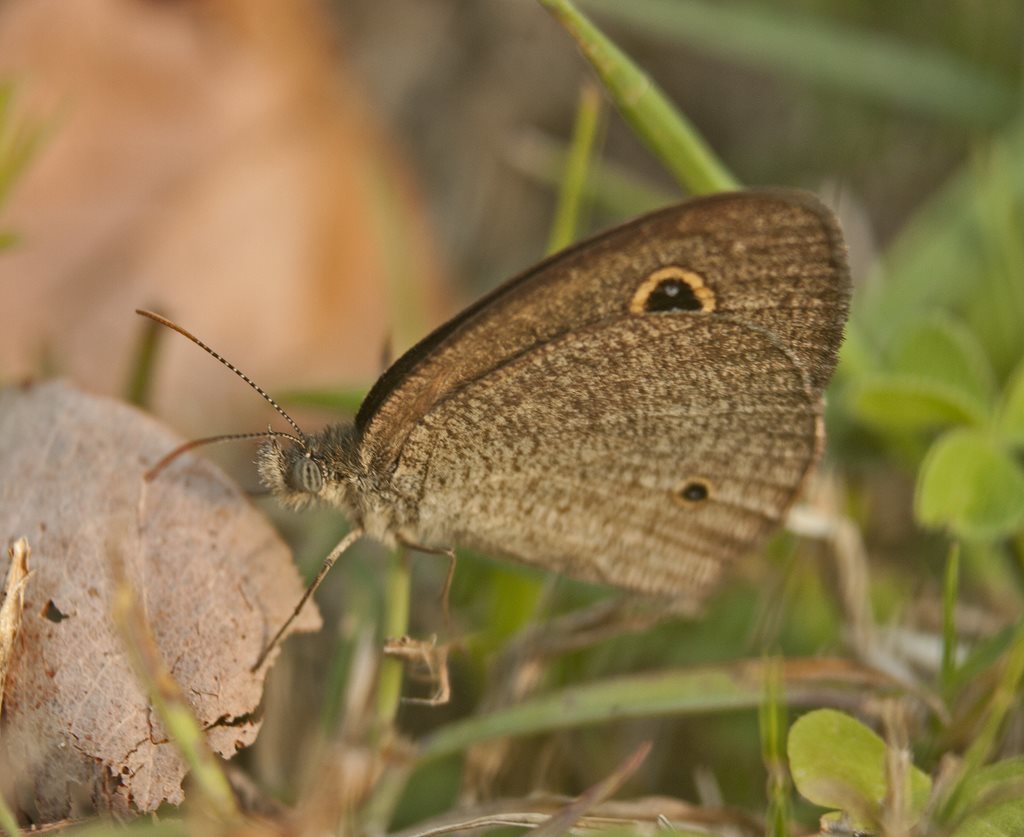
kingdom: Animalia
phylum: Arthropoda
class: Insecta
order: Lepidoptera
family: Nymphalidae
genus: Ypthima
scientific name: Ypthima arctous
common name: Dusky knight
